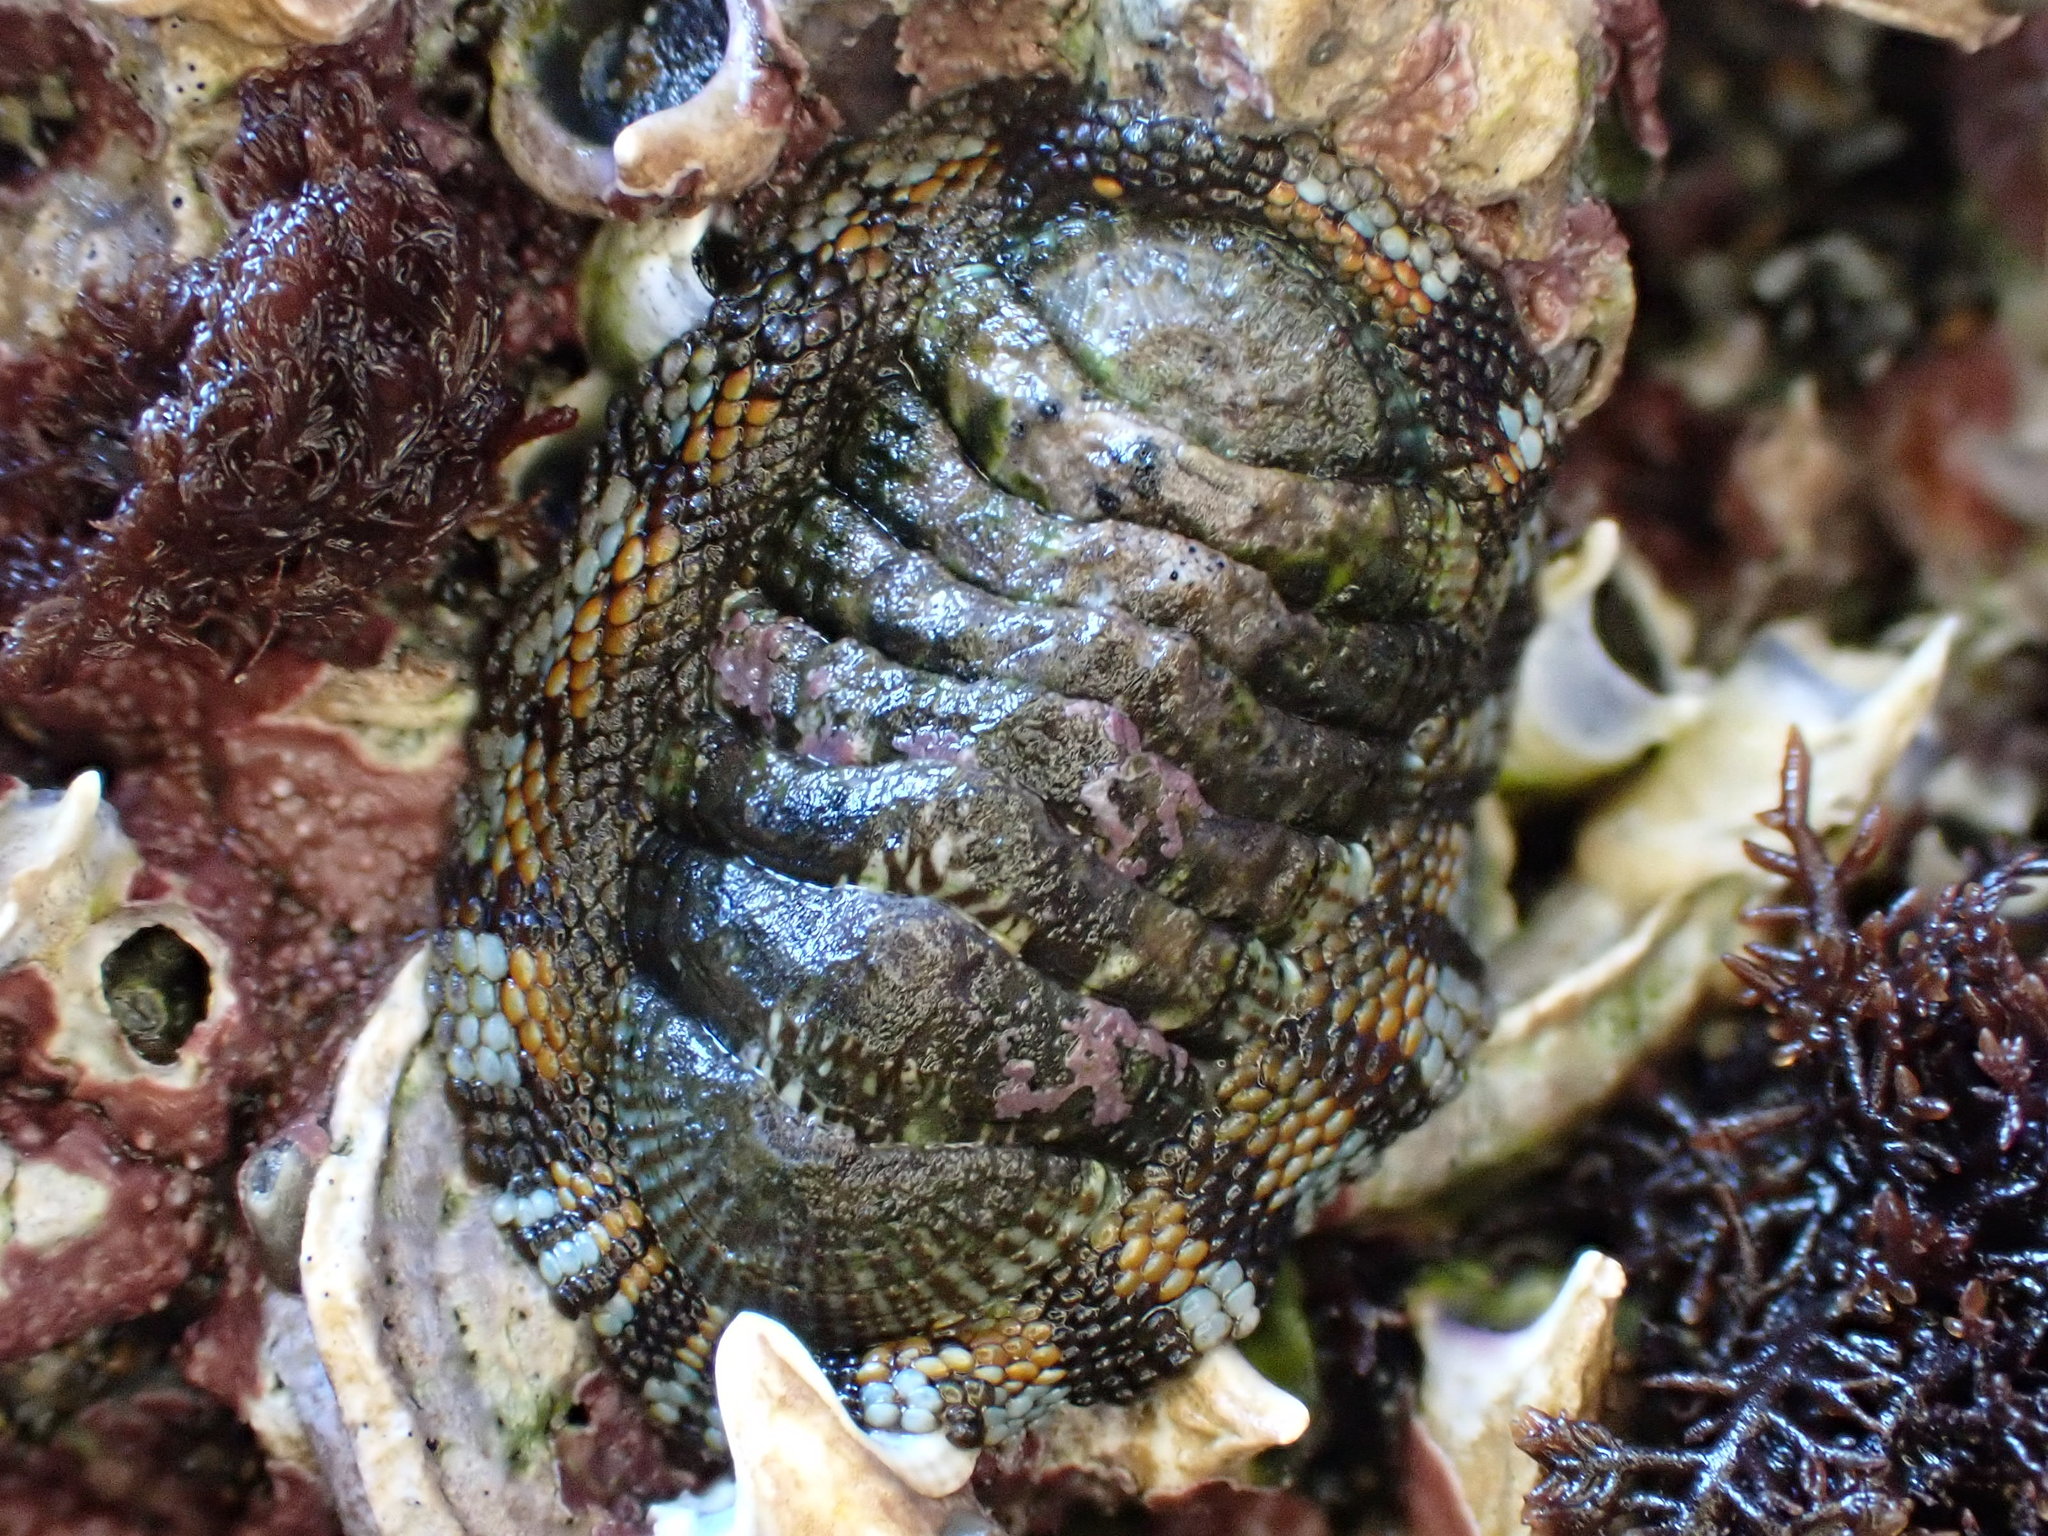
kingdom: Animalia
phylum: Mollusca
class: Polyplacophora
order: Chitonida
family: Chitonidae
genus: Sypharochiton
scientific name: Sypharochiton sinclairi
